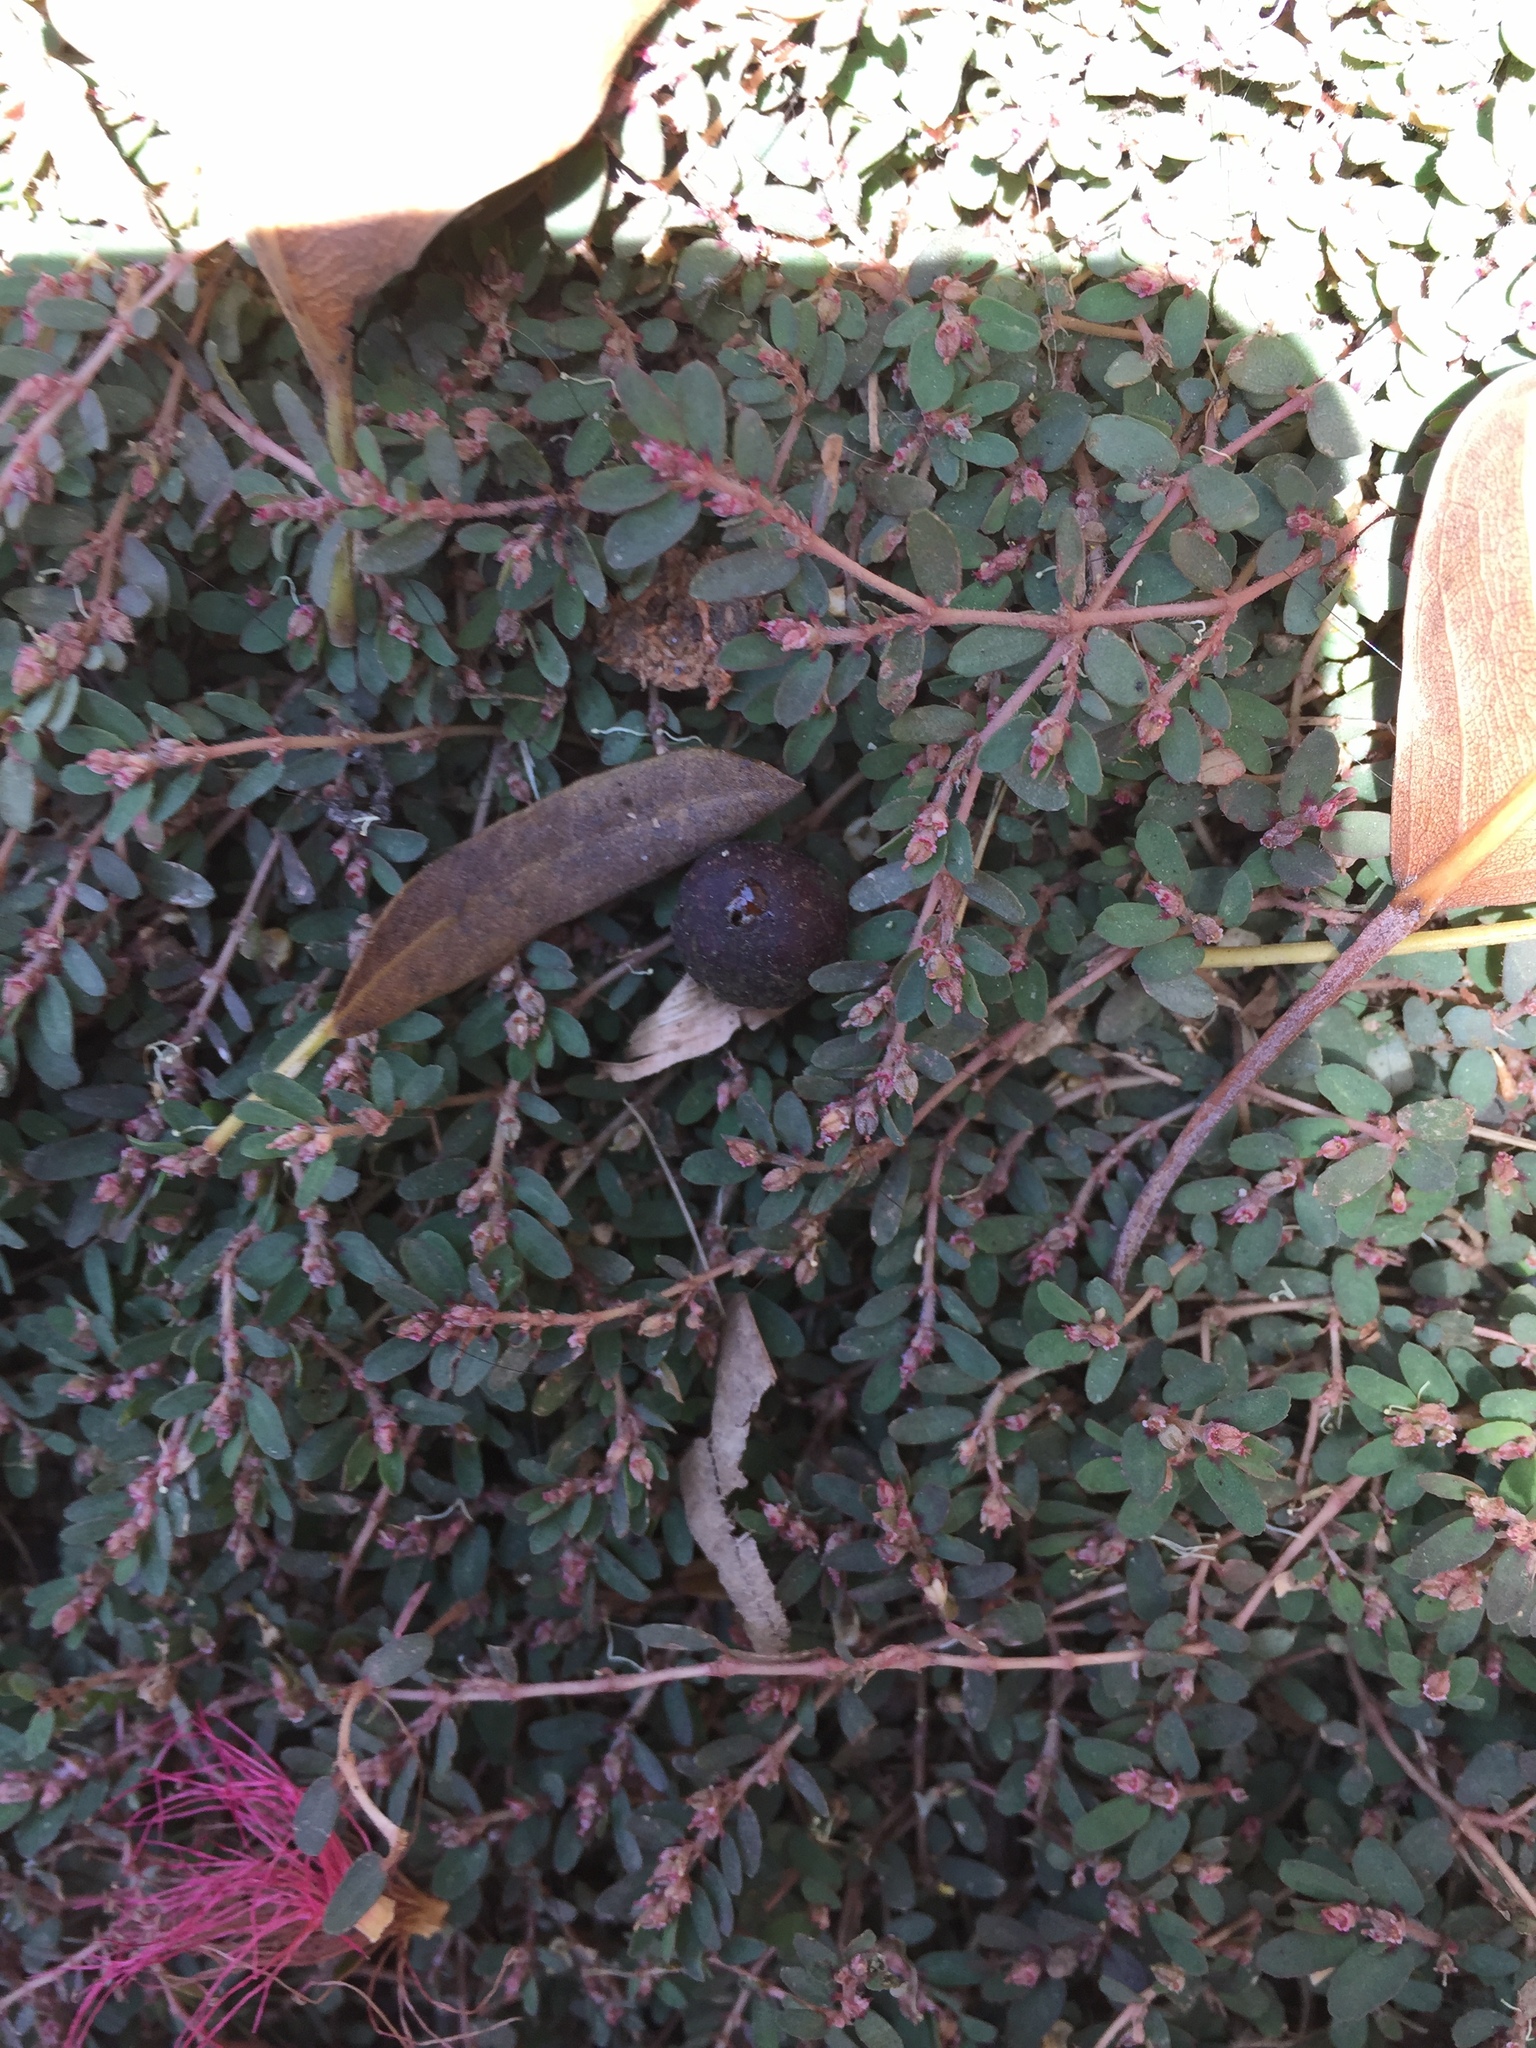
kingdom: Plantae
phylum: Tracheophyta
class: Magnoliopsida
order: Malpighiales
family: Euphorbiaceae
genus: Euphorbia
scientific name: Euphorbia thymifolia
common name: Gulf sandmat
